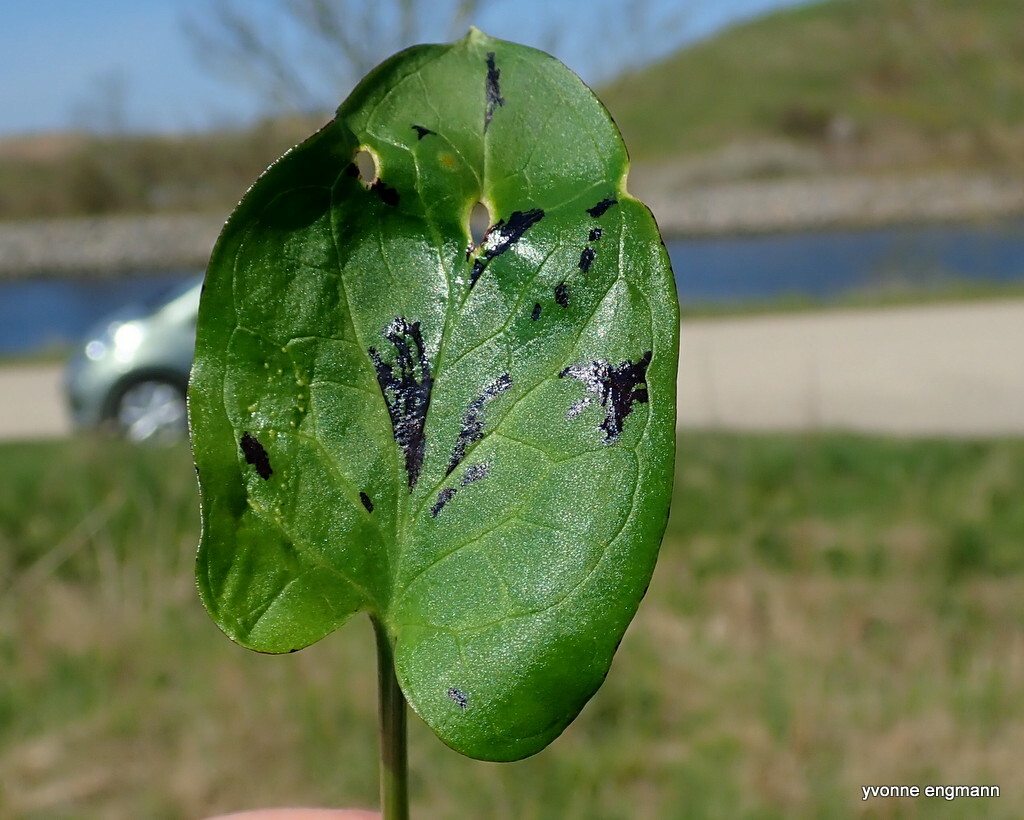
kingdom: Plantae
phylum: Tracheophyta
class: Liliopsida
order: Alismatales
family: Araceae
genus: Arum
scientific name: Arum maculatum
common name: Lords-and-ladies
